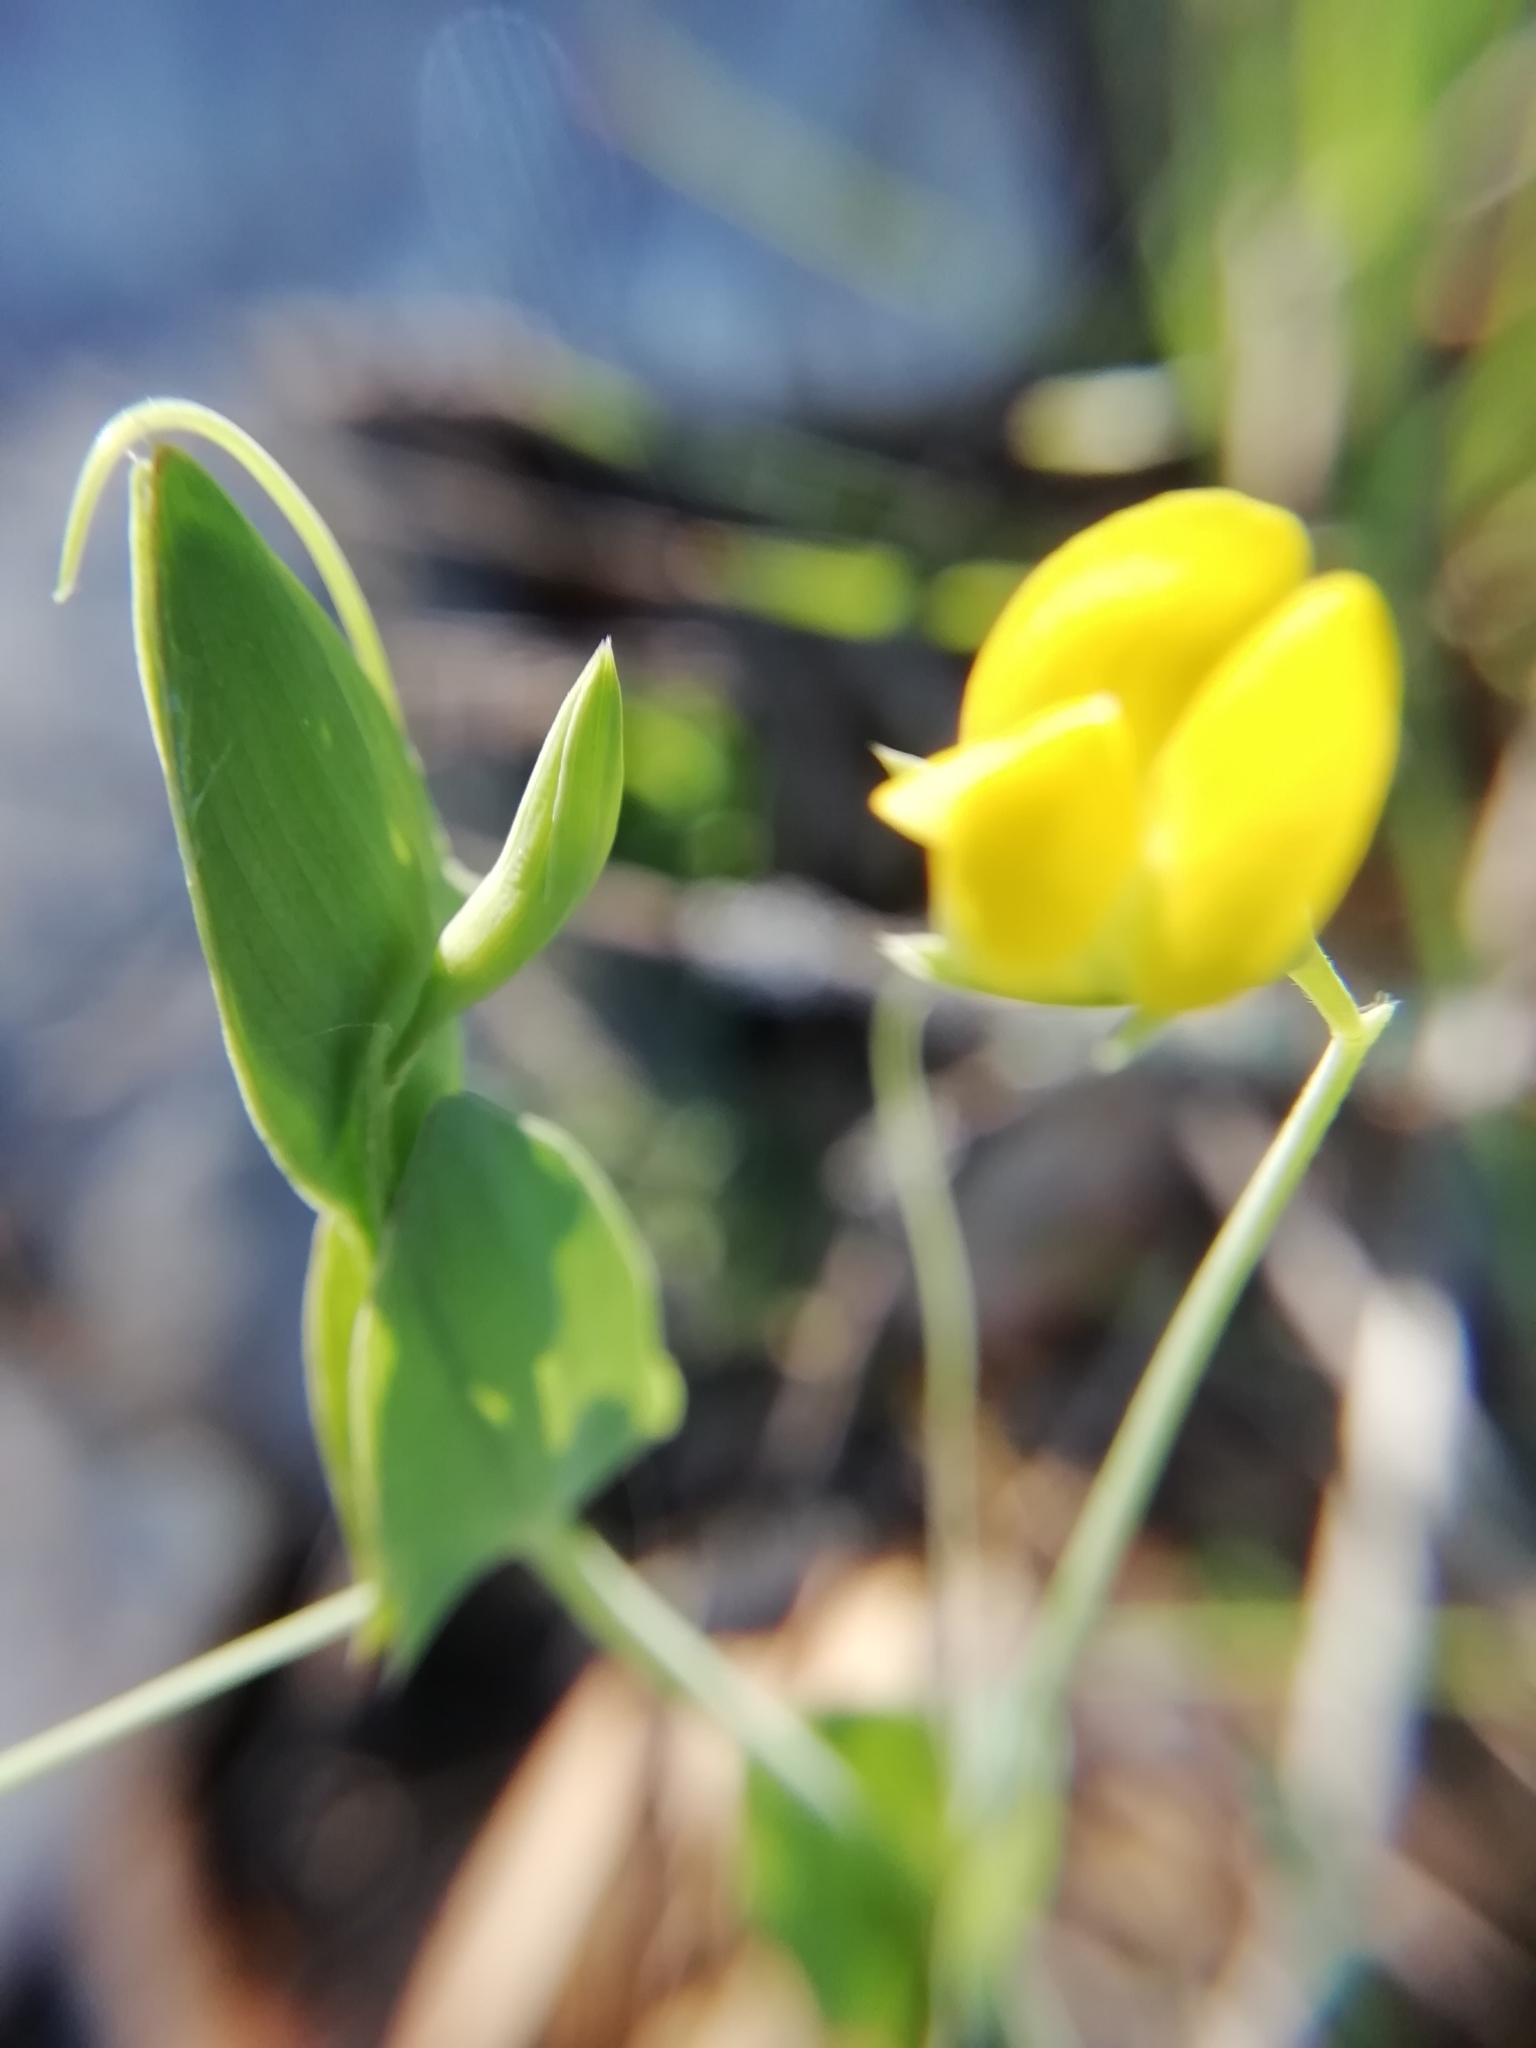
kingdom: Plantae
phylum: Tracheophyta
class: Magnoliopsida
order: Fabales
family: Fabaceae
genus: Lathyrus
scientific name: Lathyrus aphaca
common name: Yellow vetchling
